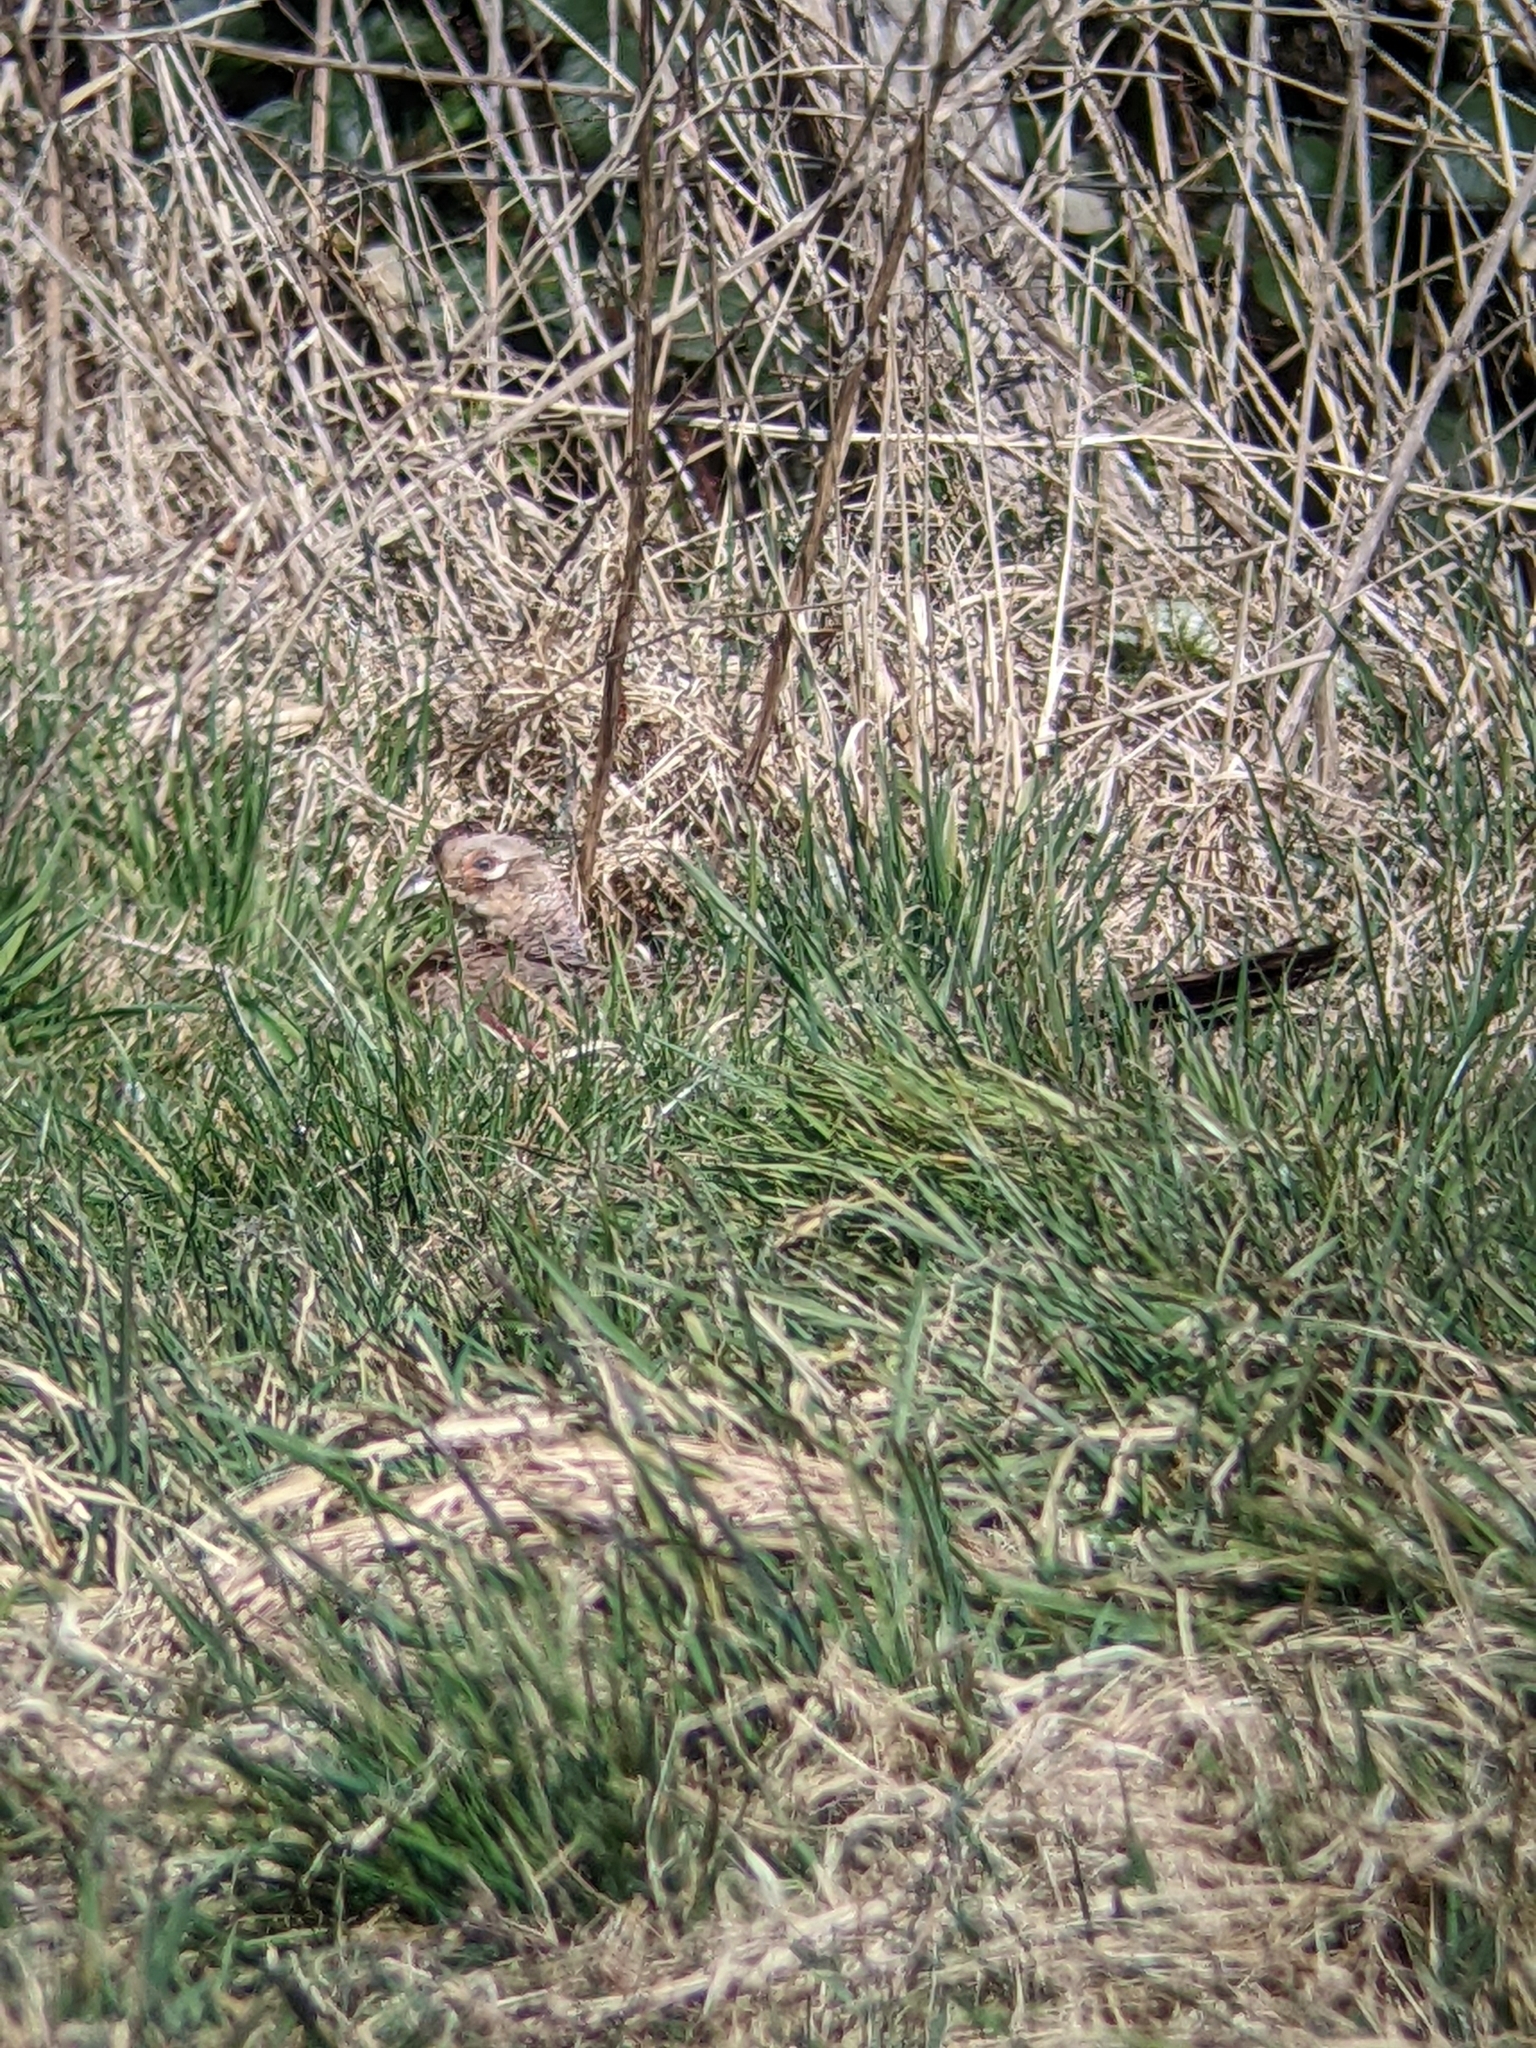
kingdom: Animalia
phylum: Chordata
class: Aves
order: Galliformes
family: Phasianidae
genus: Phasianus
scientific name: Phasianus colchicus
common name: Common pheasant
